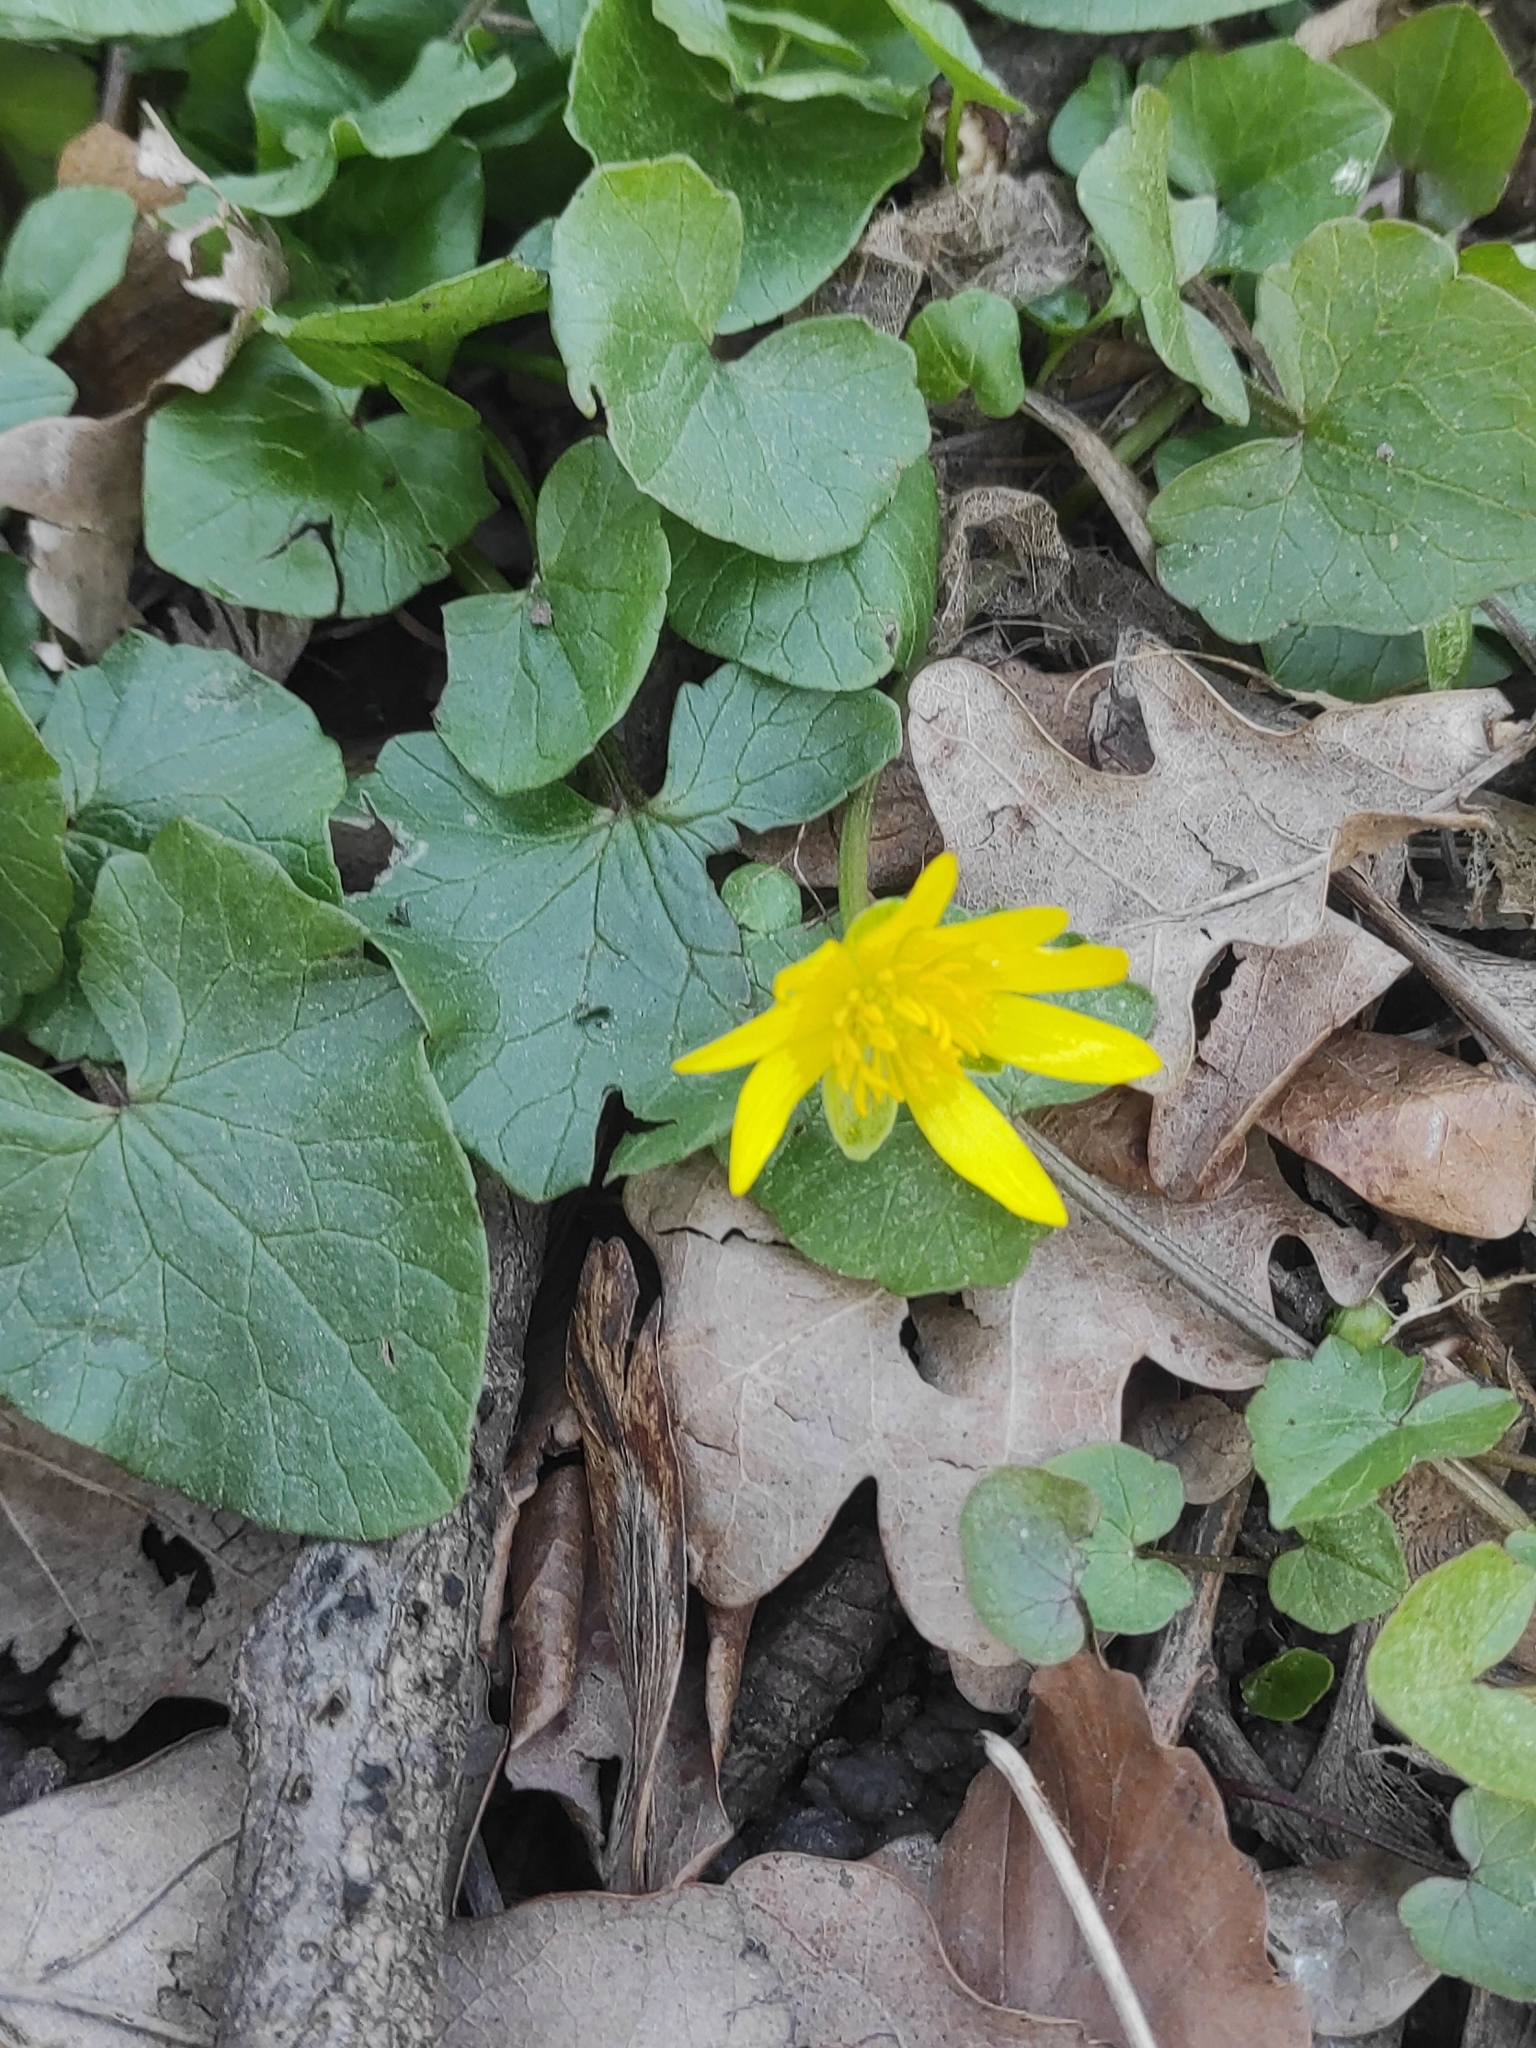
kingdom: Plantae
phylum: Tracheophyta
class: Magnoliopsida
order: Ranunculales
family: Ranunculaceae
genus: Ficaria
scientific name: Ficaria verna
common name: Lesser celandine
